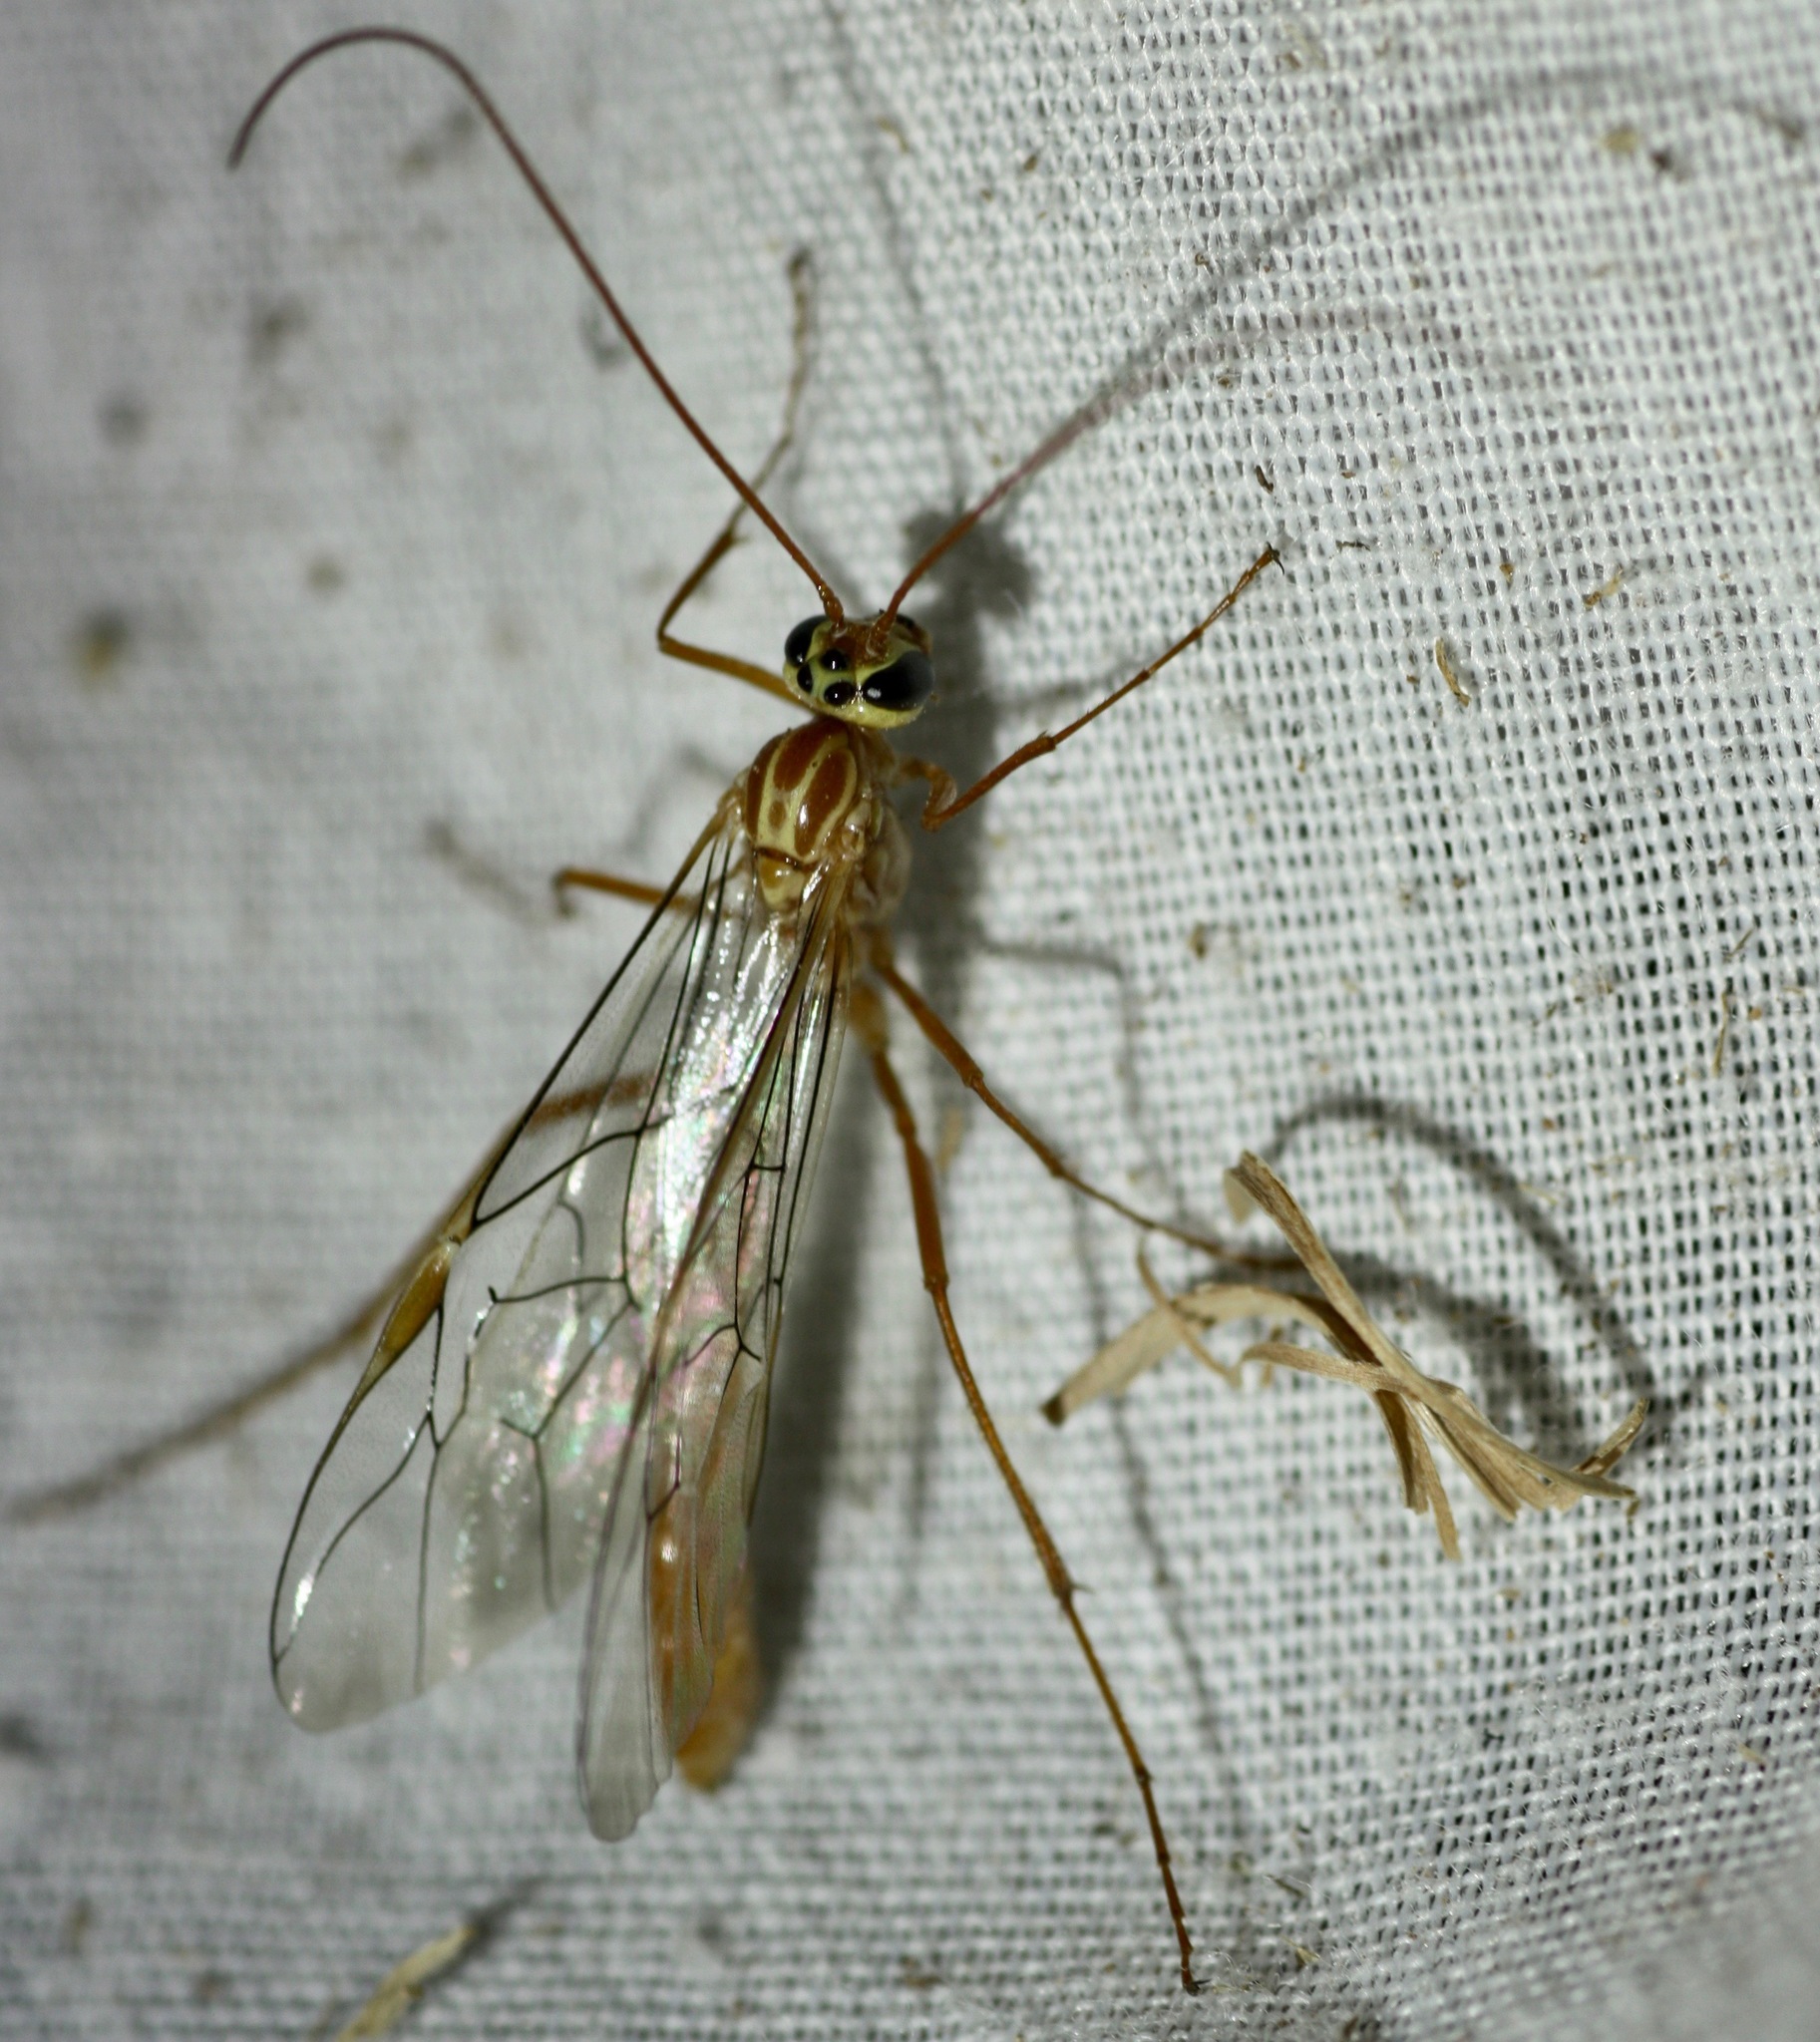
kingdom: Animalia
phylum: Arthropoda
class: Insecta
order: Hymenoptera
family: Ichneumonidae
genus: Ophion
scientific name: Ophion
